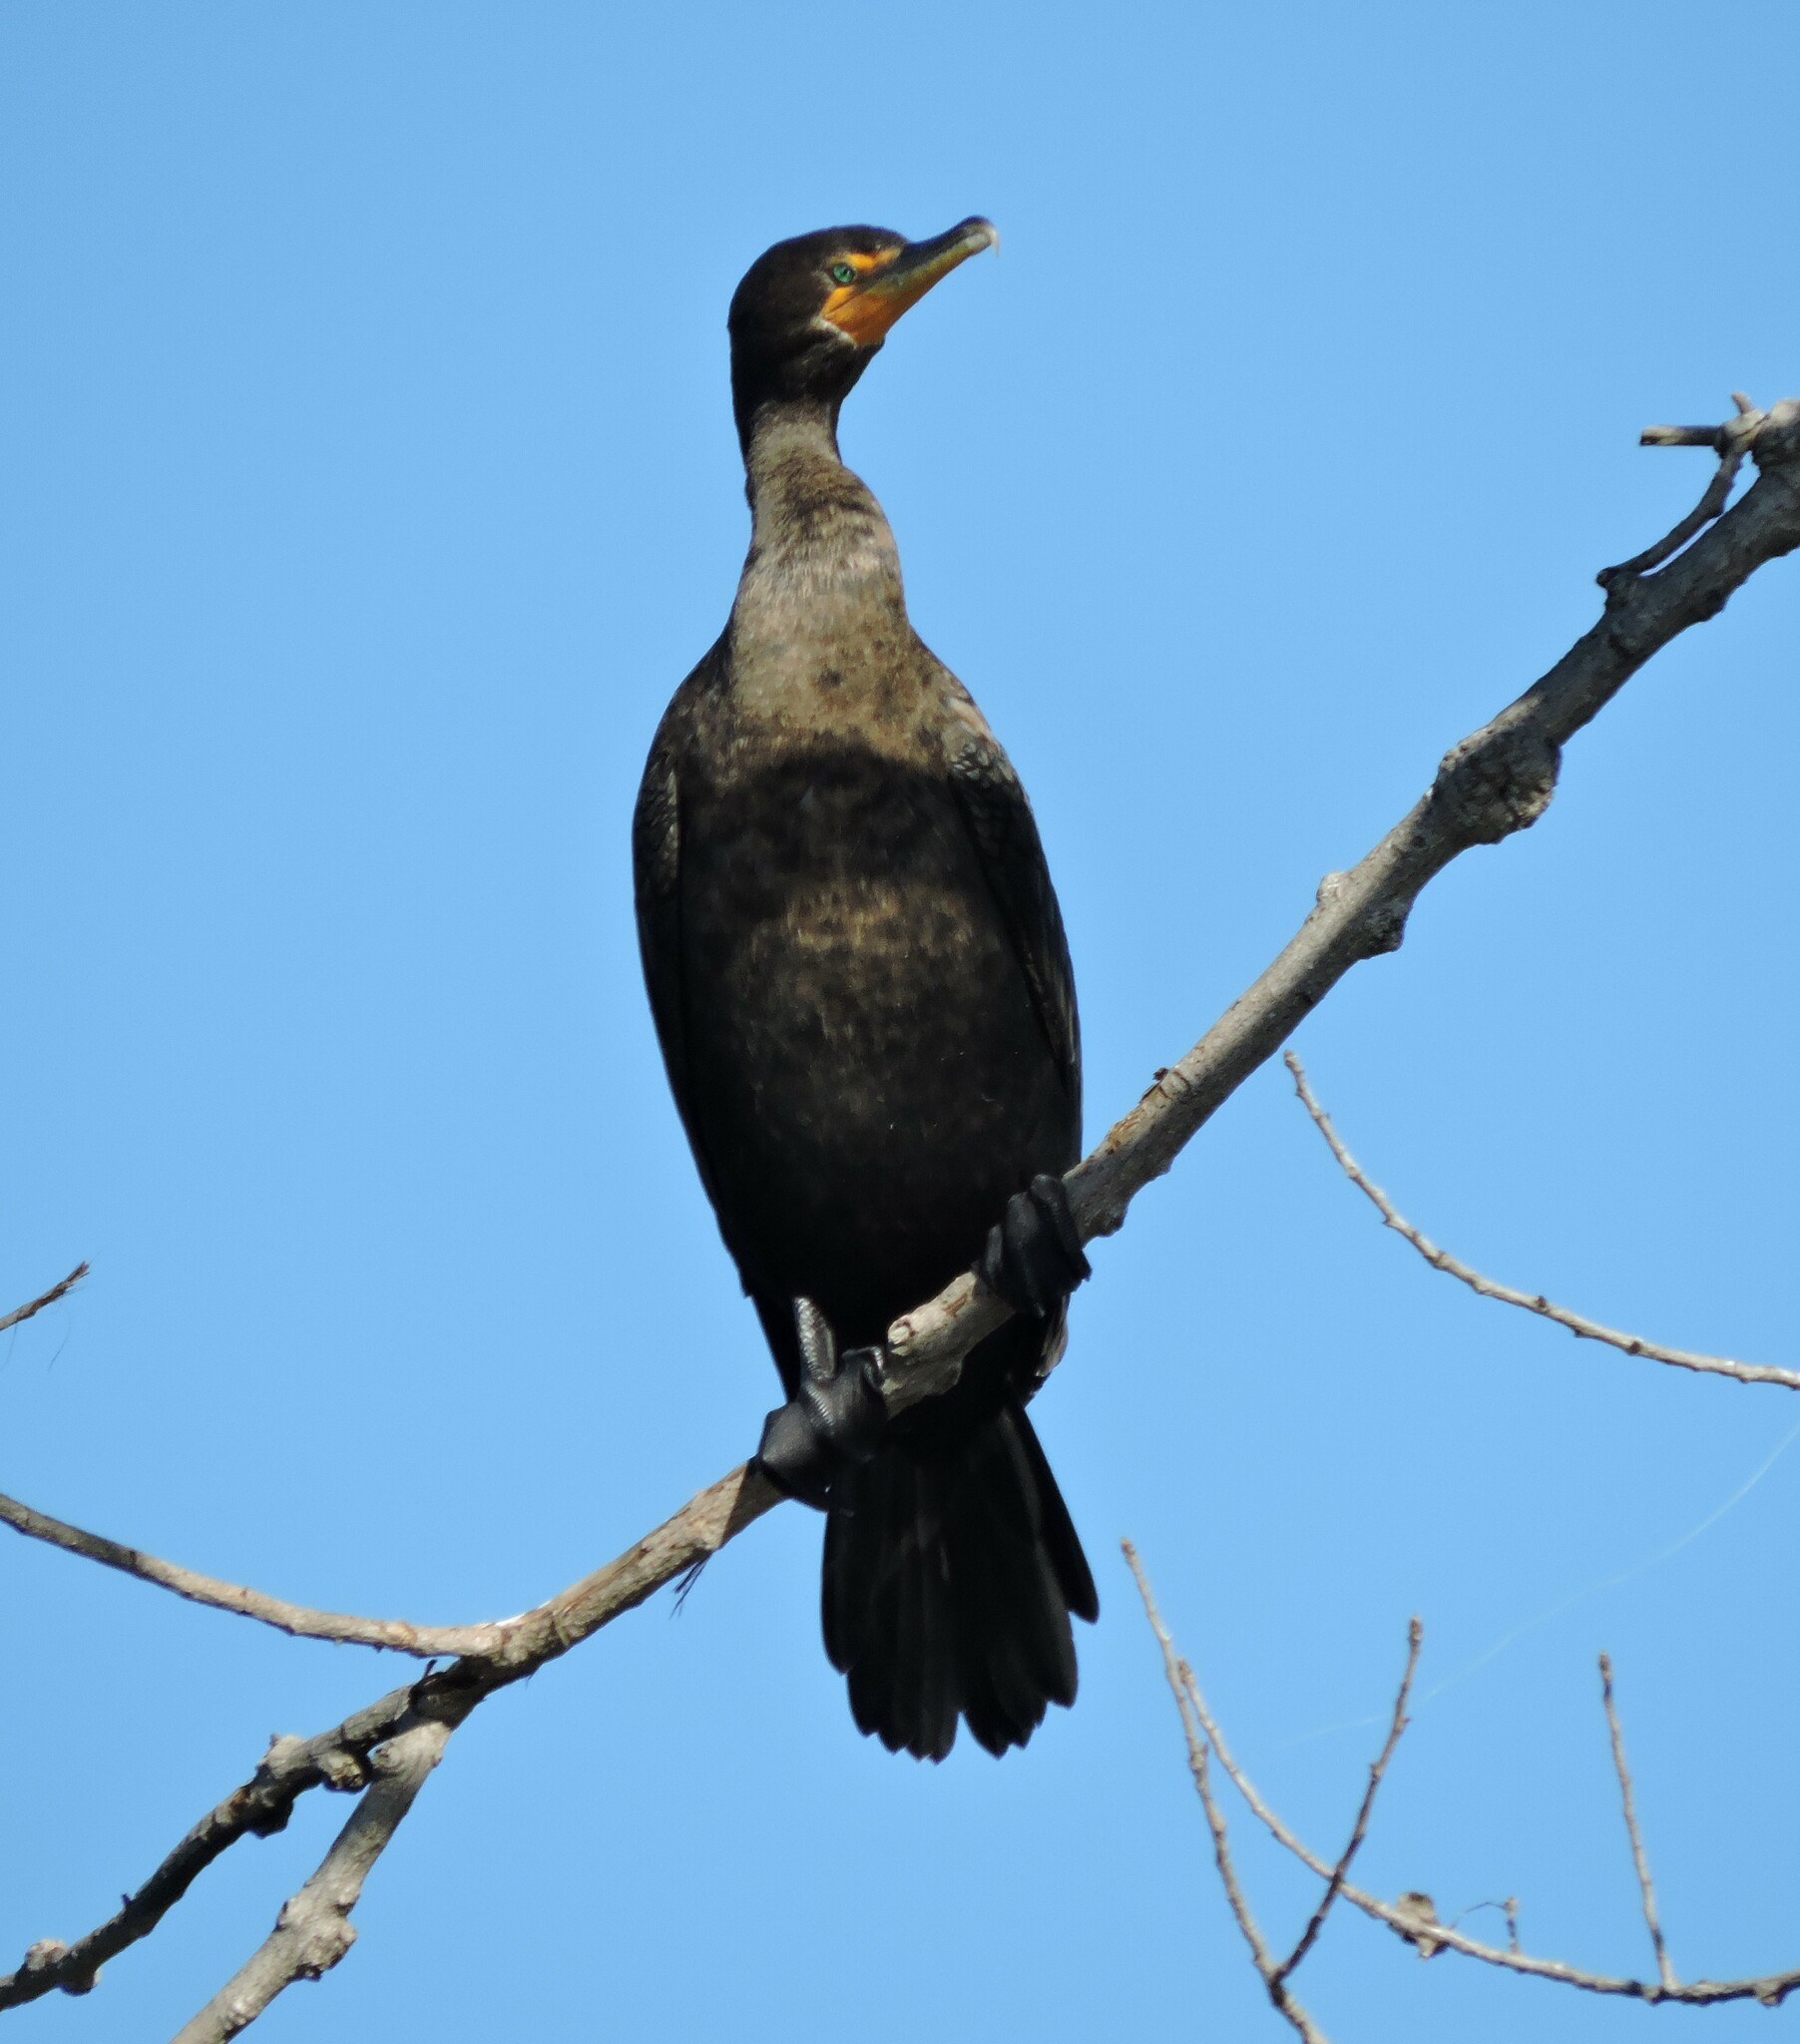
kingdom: Animalia
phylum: Chordata
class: Aves
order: Suliformes
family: Phalacrocoracidae
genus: Phalacrocorax
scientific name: Phalacrocorax auritus
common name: Double-crested cormorant
